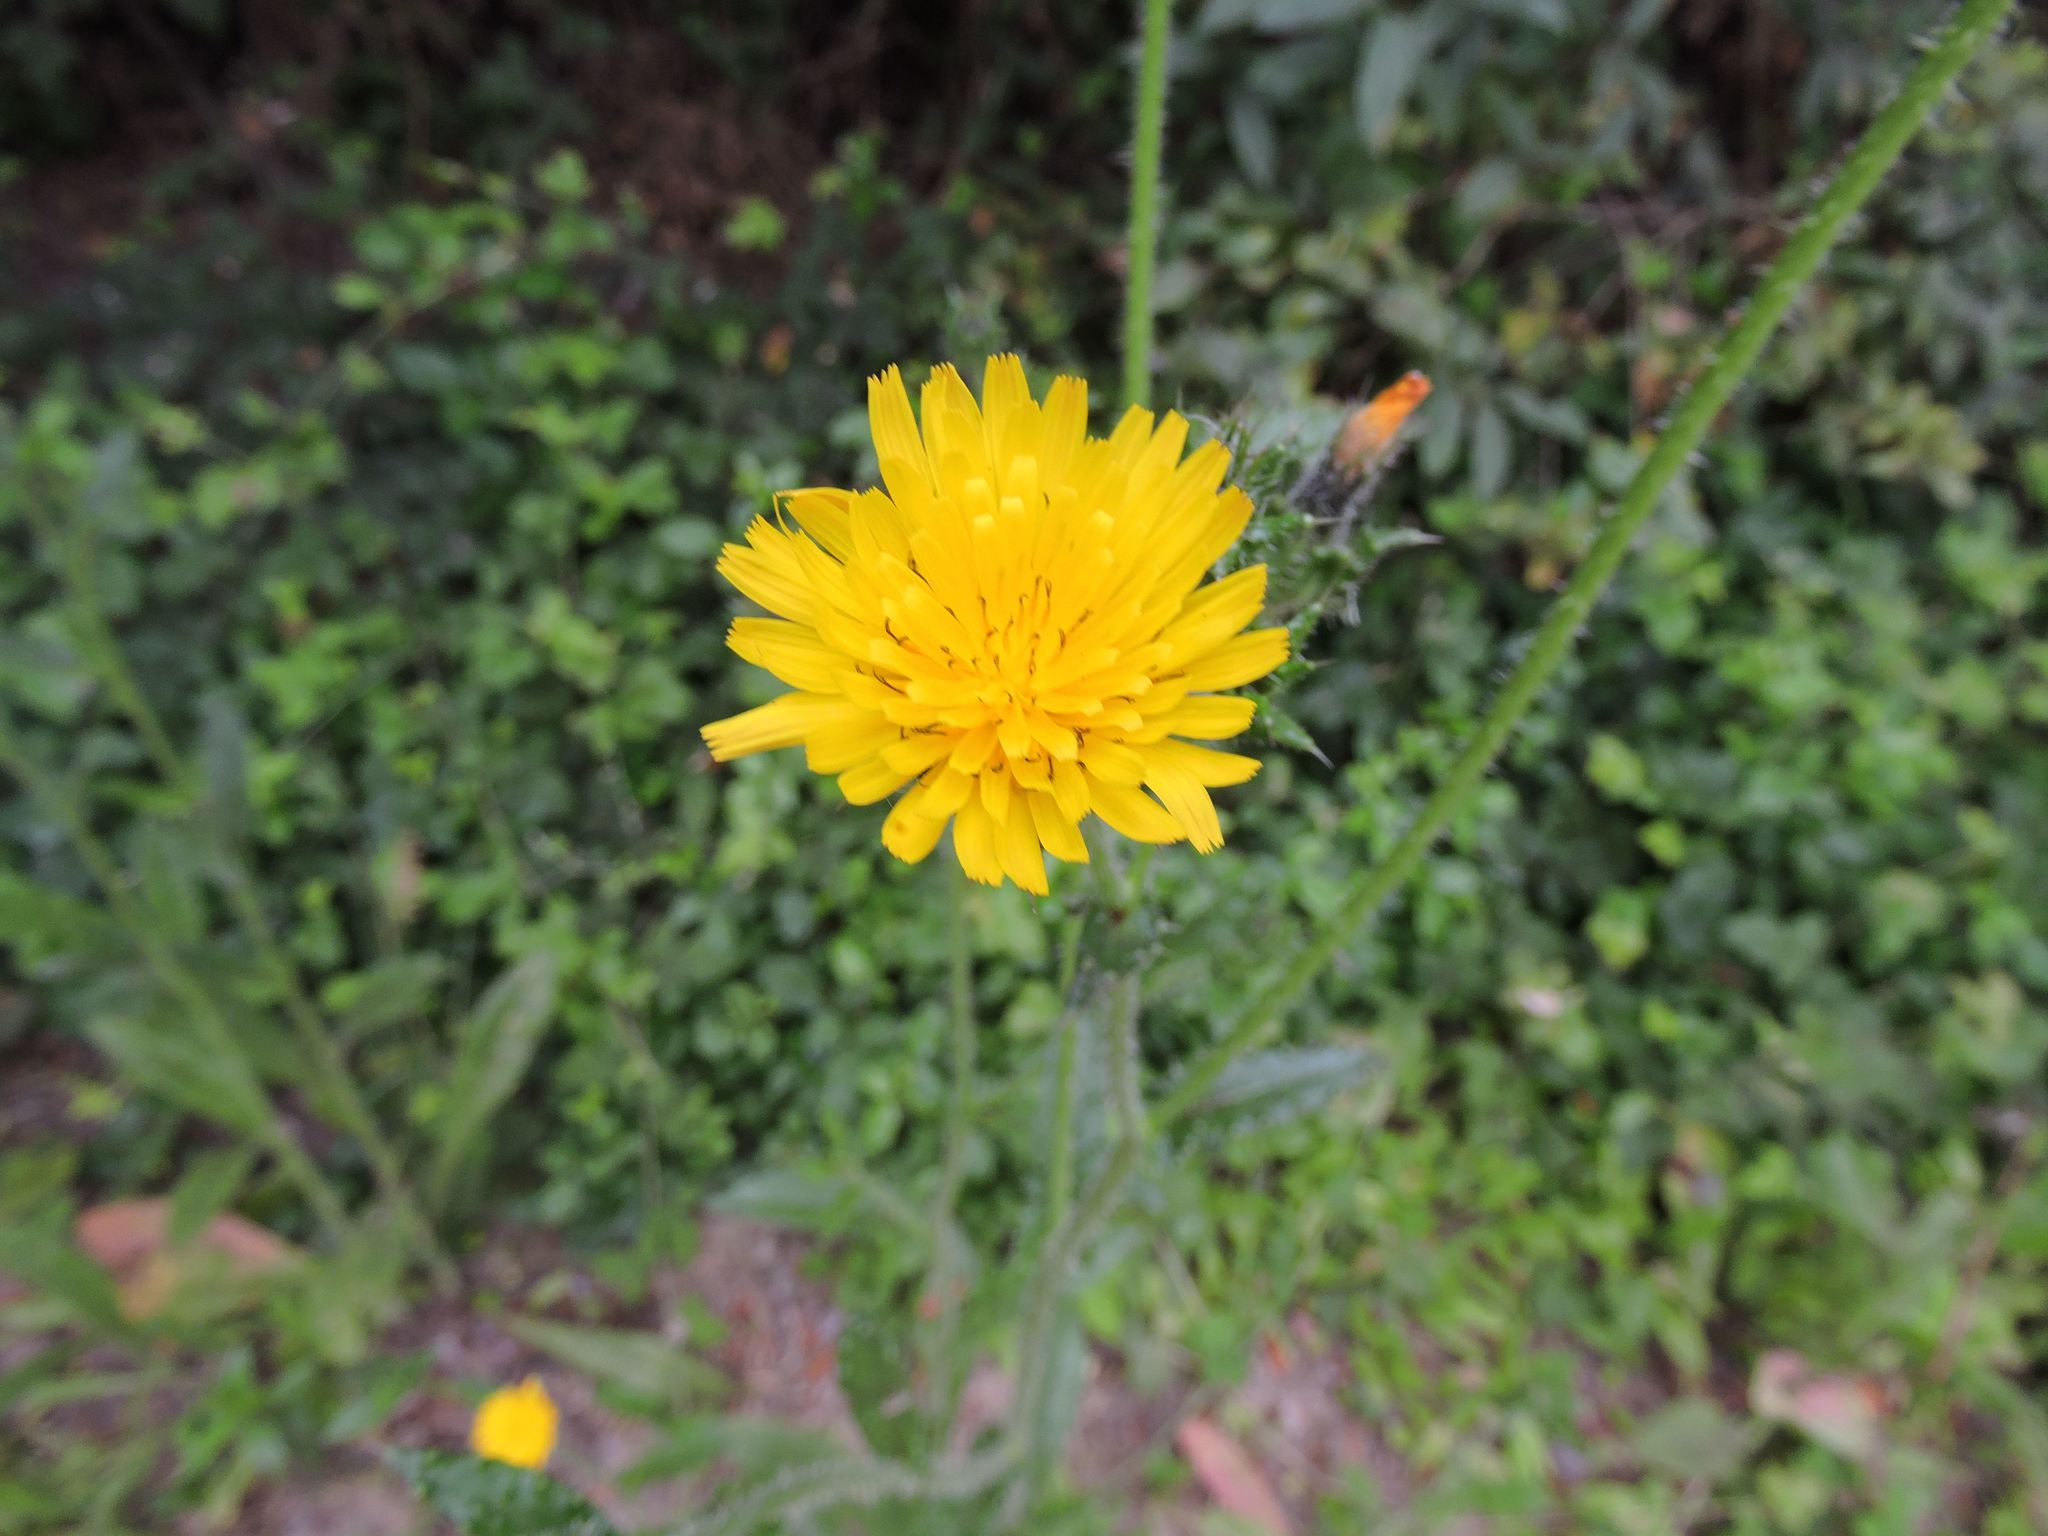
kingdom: Plantae
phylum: Tracheophyta
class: Magnoliopsida
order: Asterales
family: Asteraceae
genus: Helminthotheca
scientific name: Helminthotheca echioides
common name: Ox-tongue
